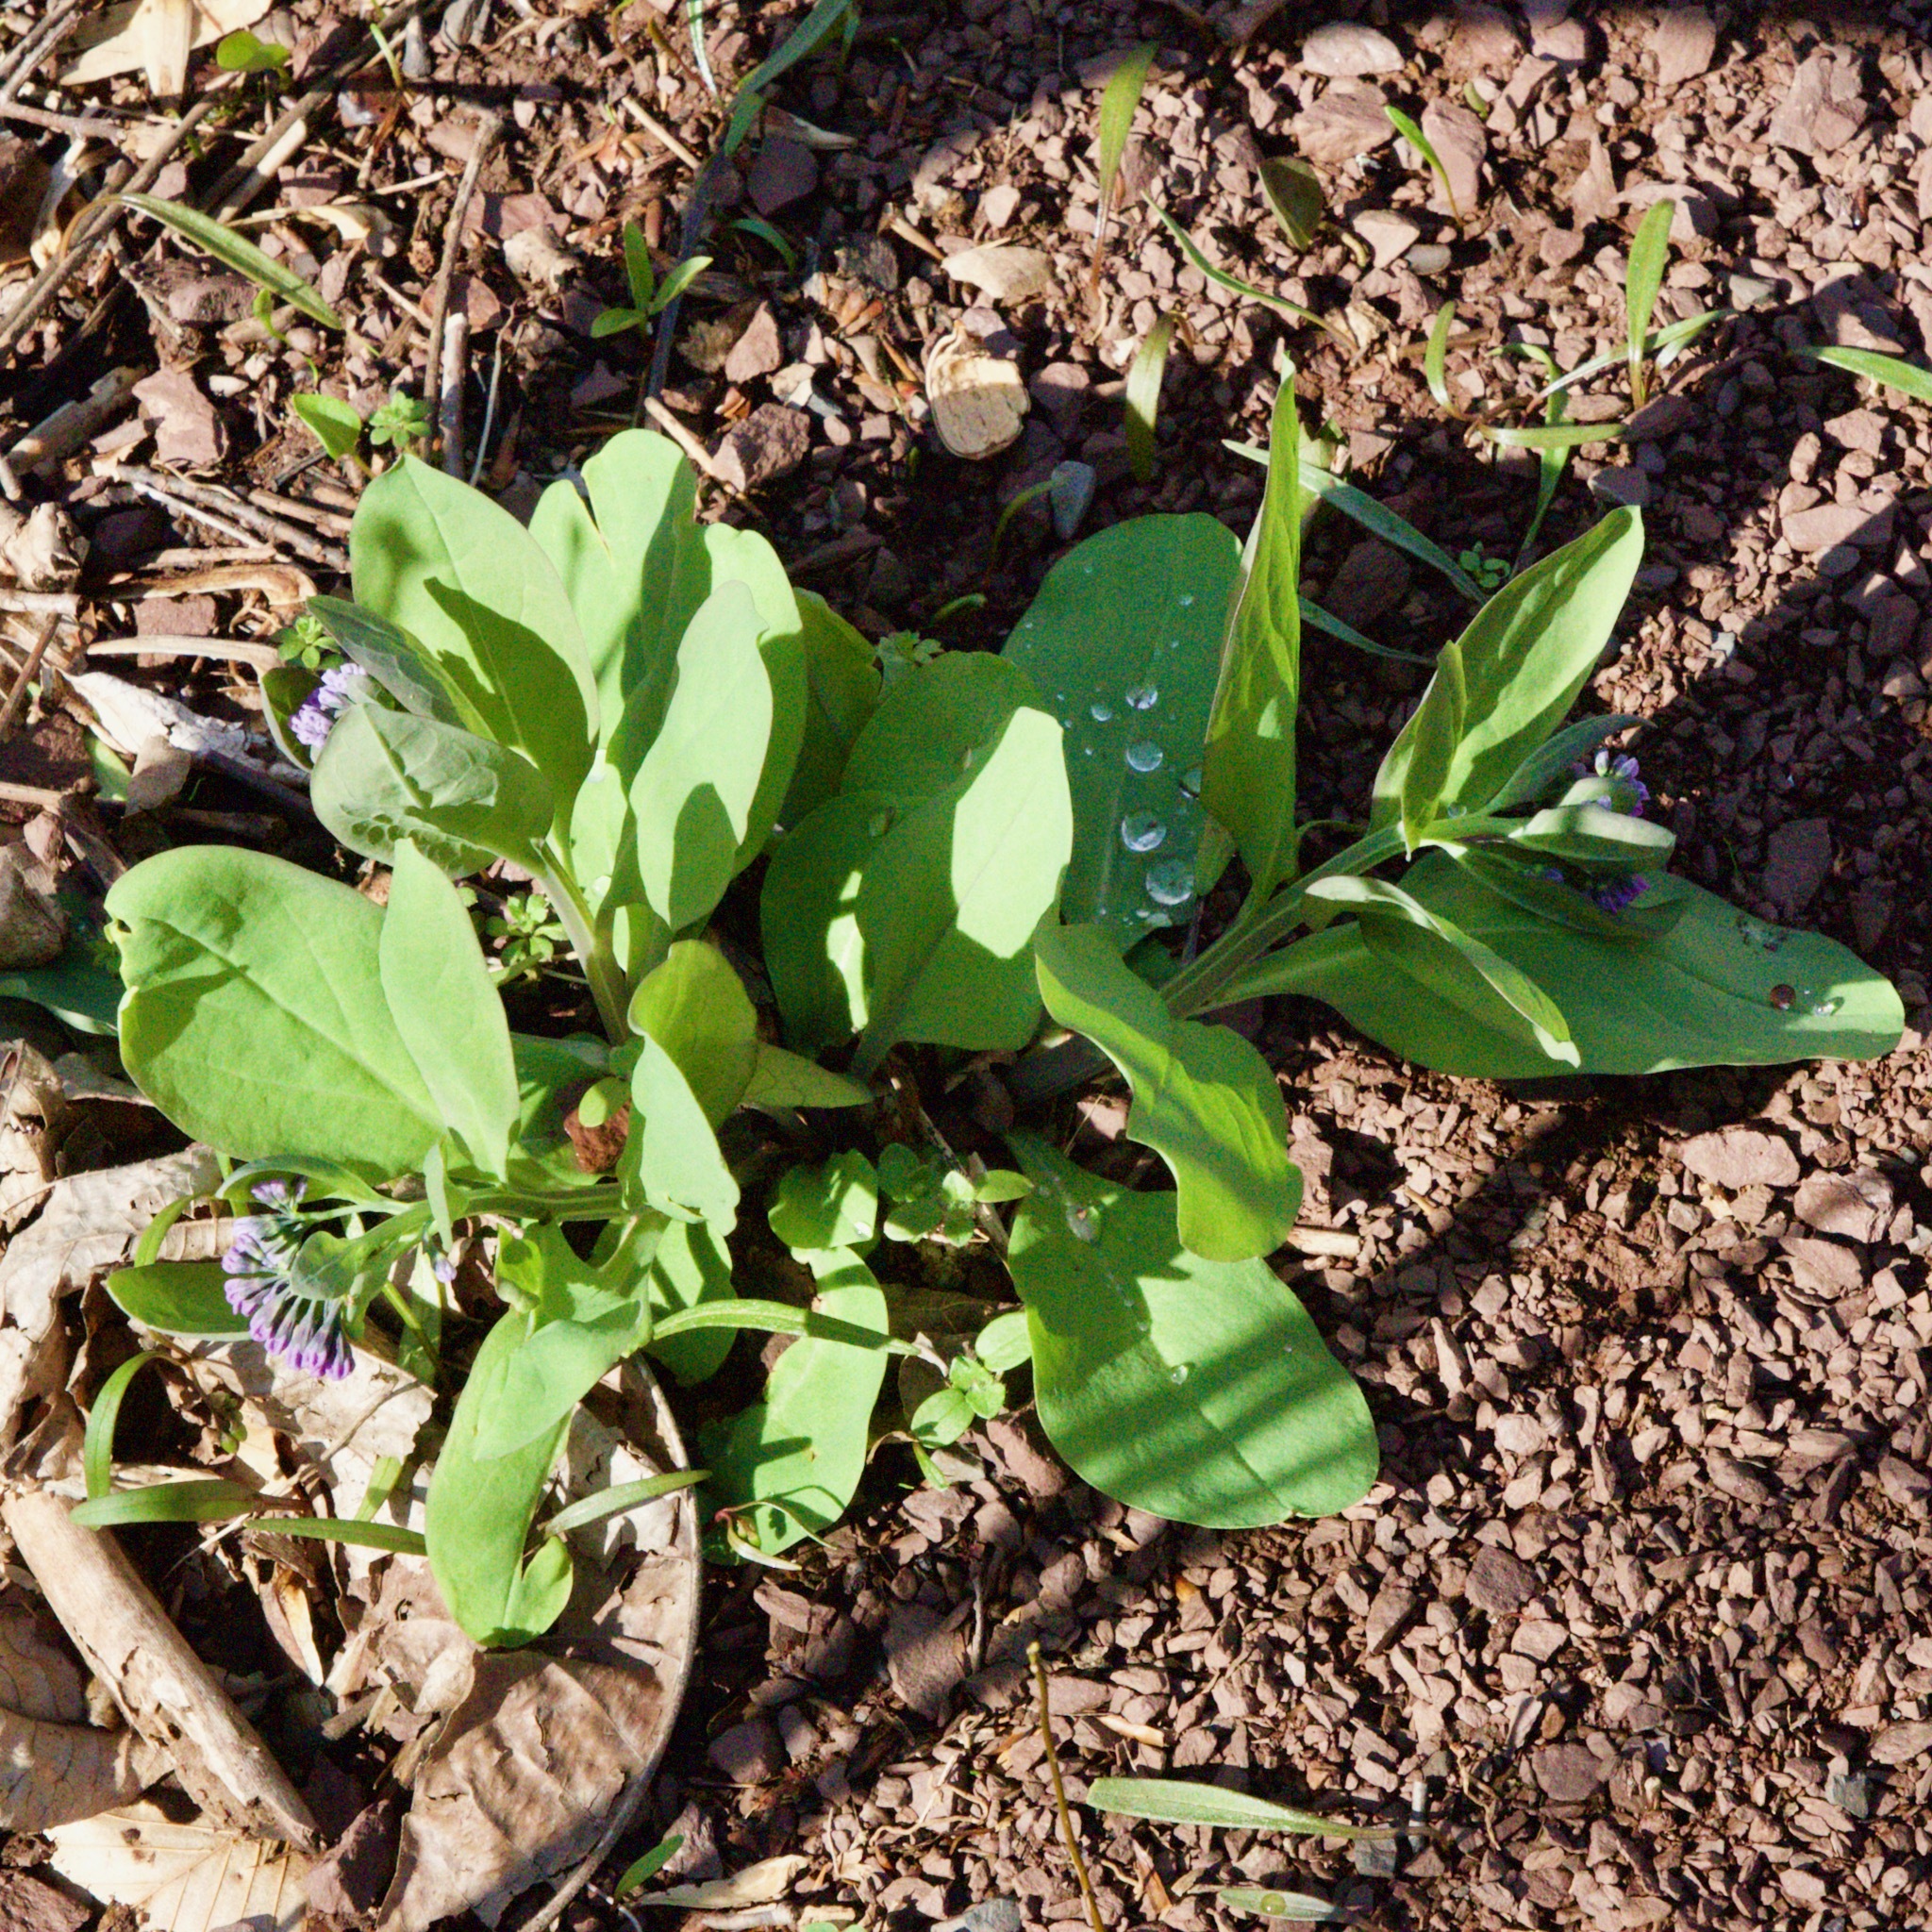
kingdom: Plantae
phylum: Tracheophyta
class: Magnoliopsida
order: Boraginales
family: Boraginaceae
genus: Mertensia
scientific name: Mertensia virginica
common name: Virginia bluebells
